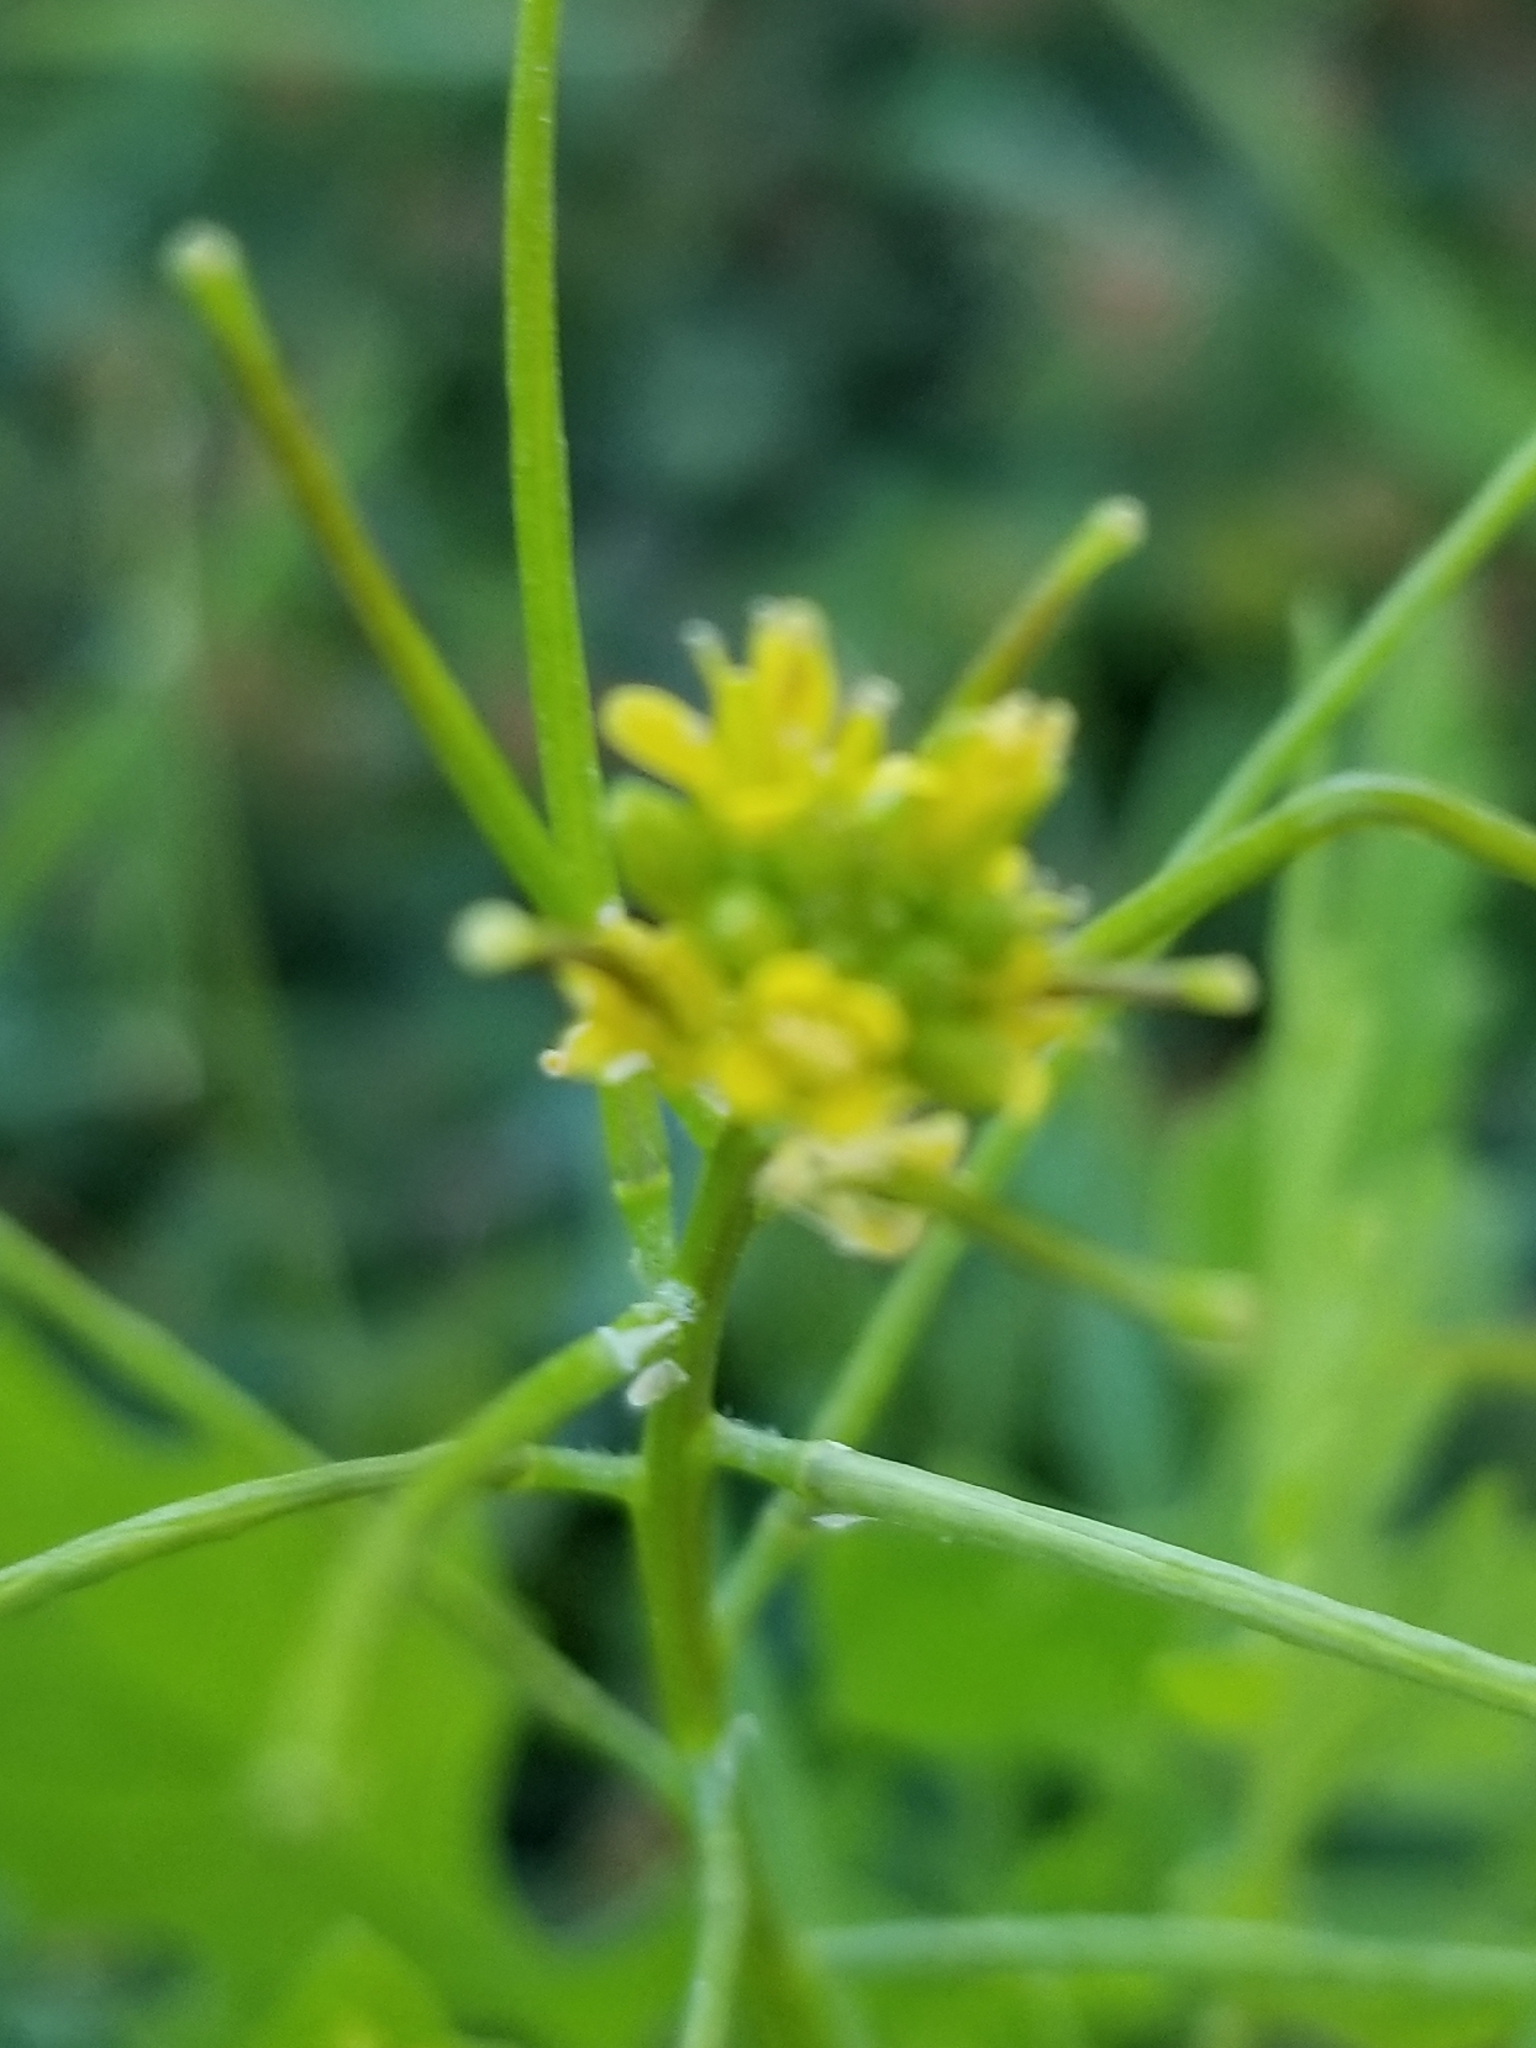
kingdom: Plantae
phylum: Tracheophyta
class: Magnoliopsida
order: Brassicales
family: Brassicaceae
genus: Sisymbrium
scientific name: Sisymbrium irio
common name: London rocket
